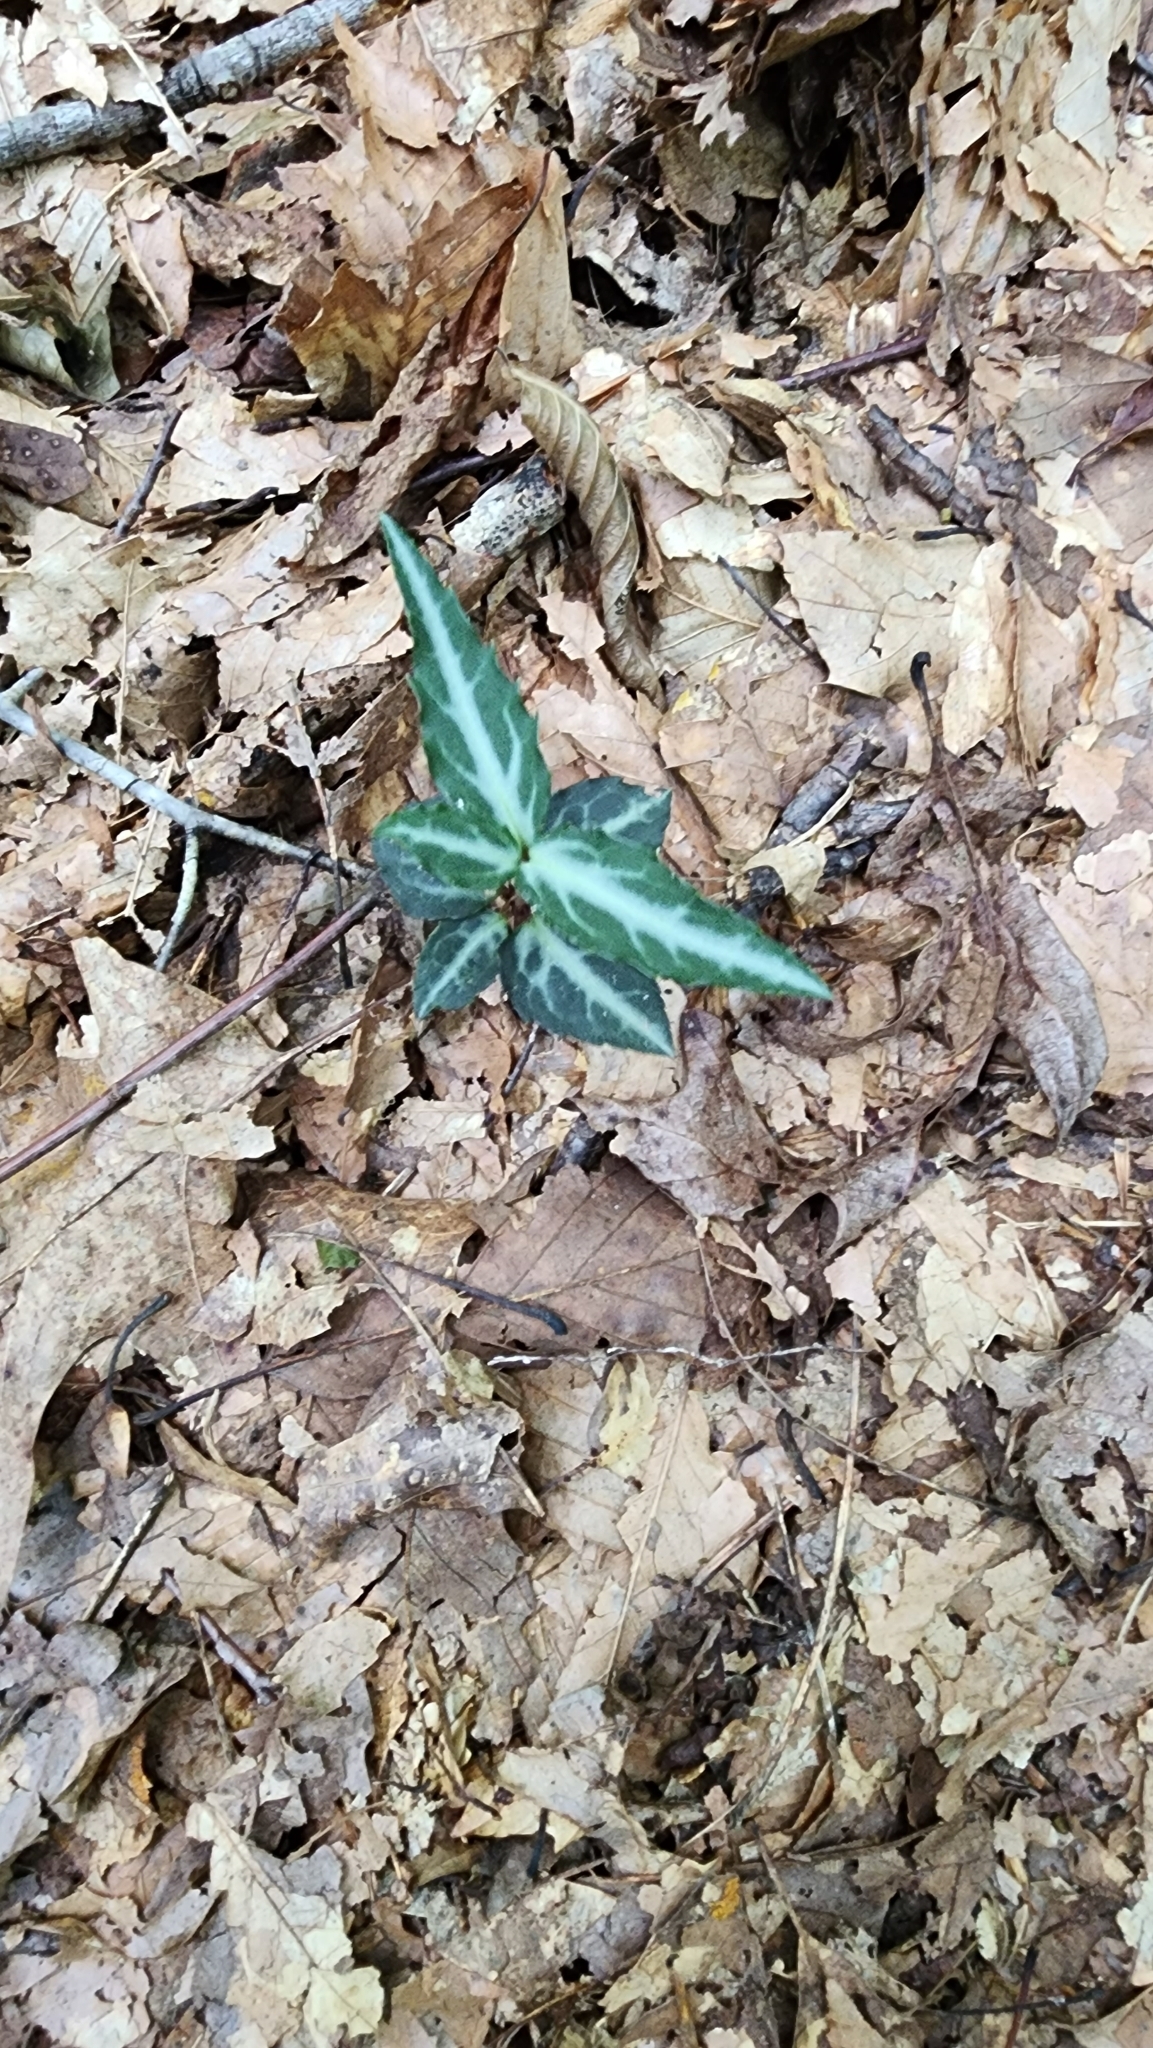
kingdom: Plantae
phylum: Tracheophyta
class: Magnoliopsida
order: Ericales
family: Ericaceae
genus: Chimaphila
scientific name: Chimaphila maculata
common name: Spotted pipsissewa
